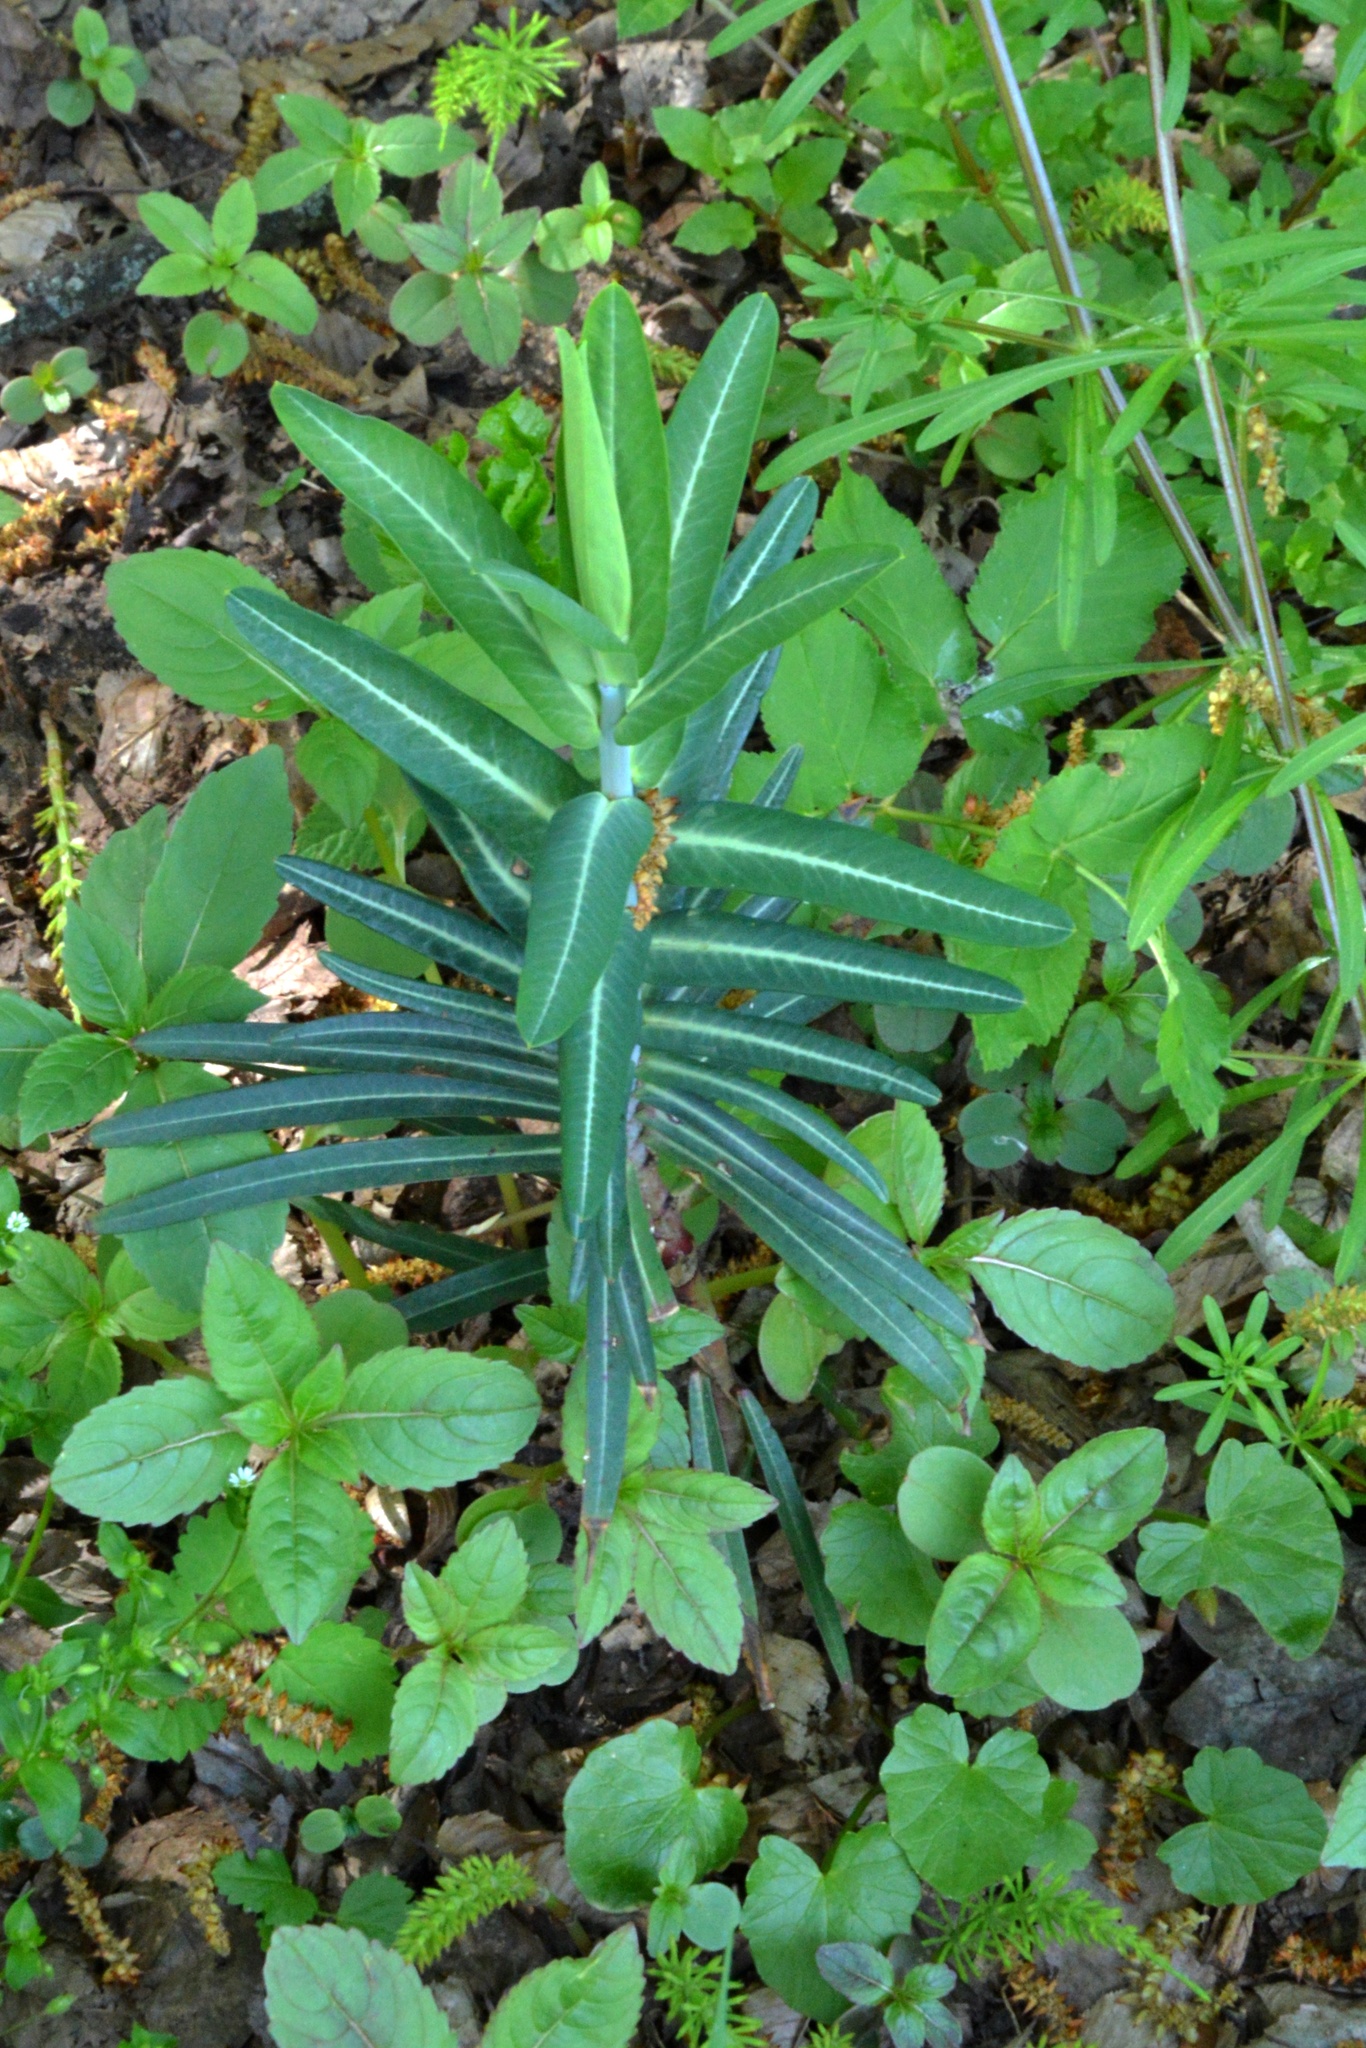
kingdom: Plantae
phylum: Tracheophyta
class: Magnoliopsida
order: Malpighiales
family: Euphorbiaceae
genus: Euphorbia
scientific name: Euphorbia lathyris
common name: Caper spurge
